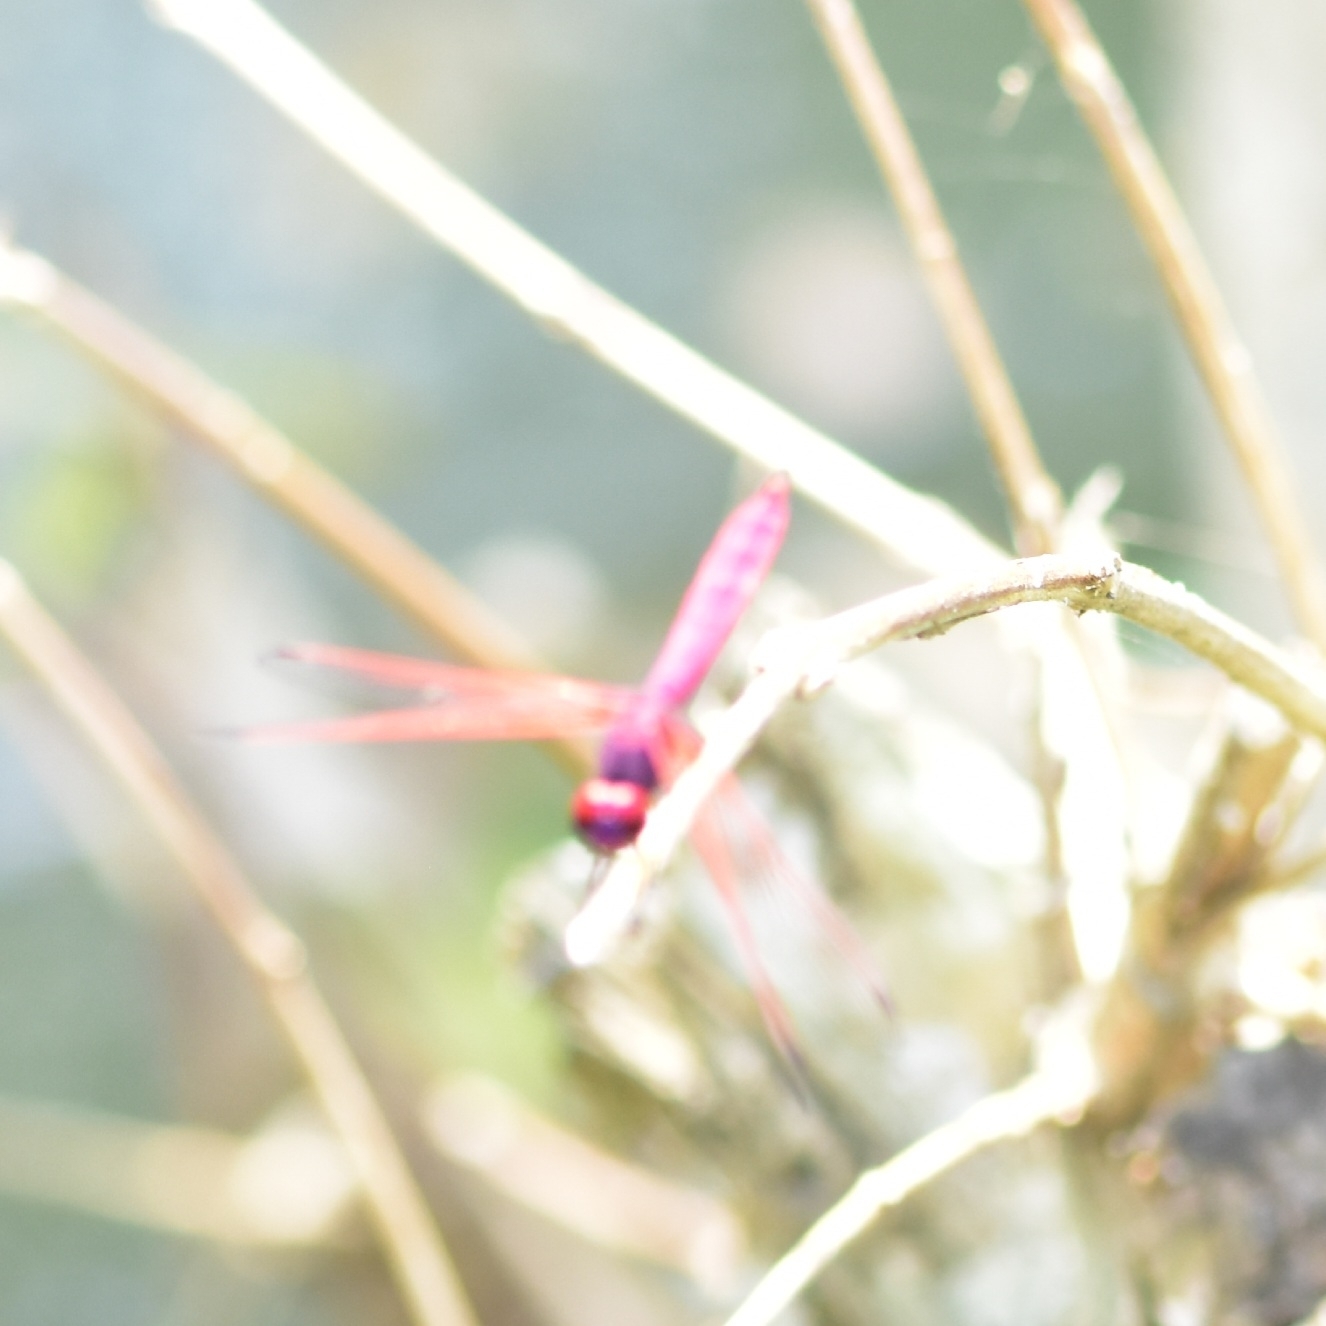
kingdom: Animalia
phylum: Arthropoda
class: Insecta
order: Odonata
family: Libellulidae
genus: Trithemis
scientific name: Trithemis aurora
